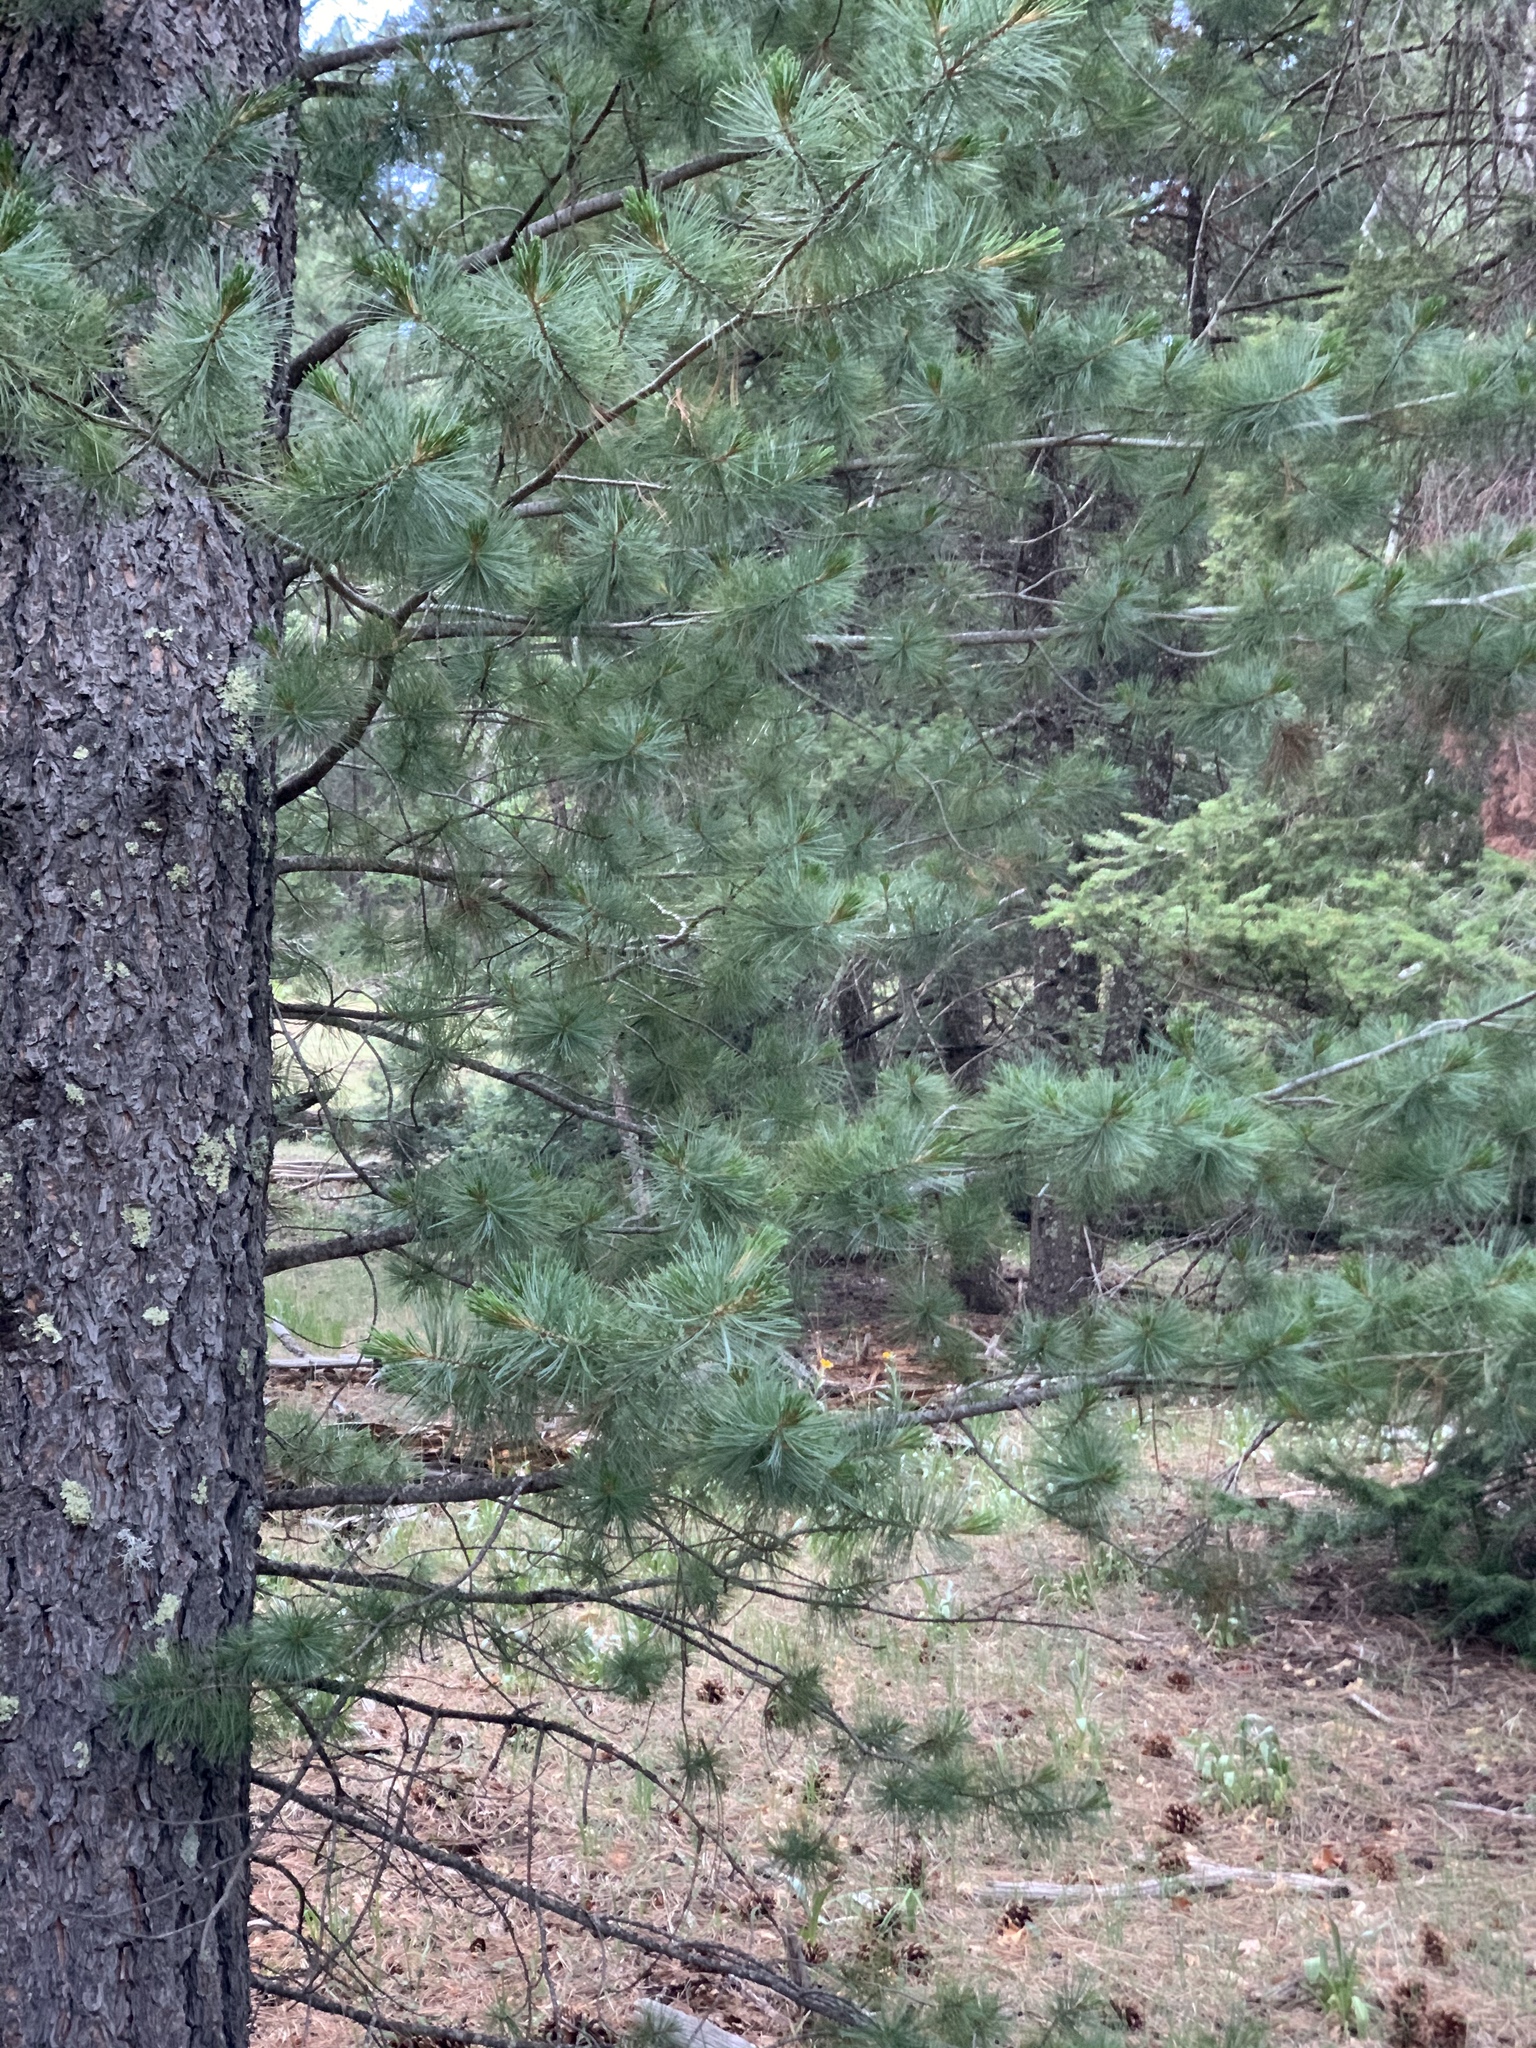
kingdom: Plantae
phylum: Tracheophyta
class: Pinopsida
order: Pinales
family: Pinaceae
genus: Pinus
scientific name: Pinus strobiformis
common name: Southwestern white pine
